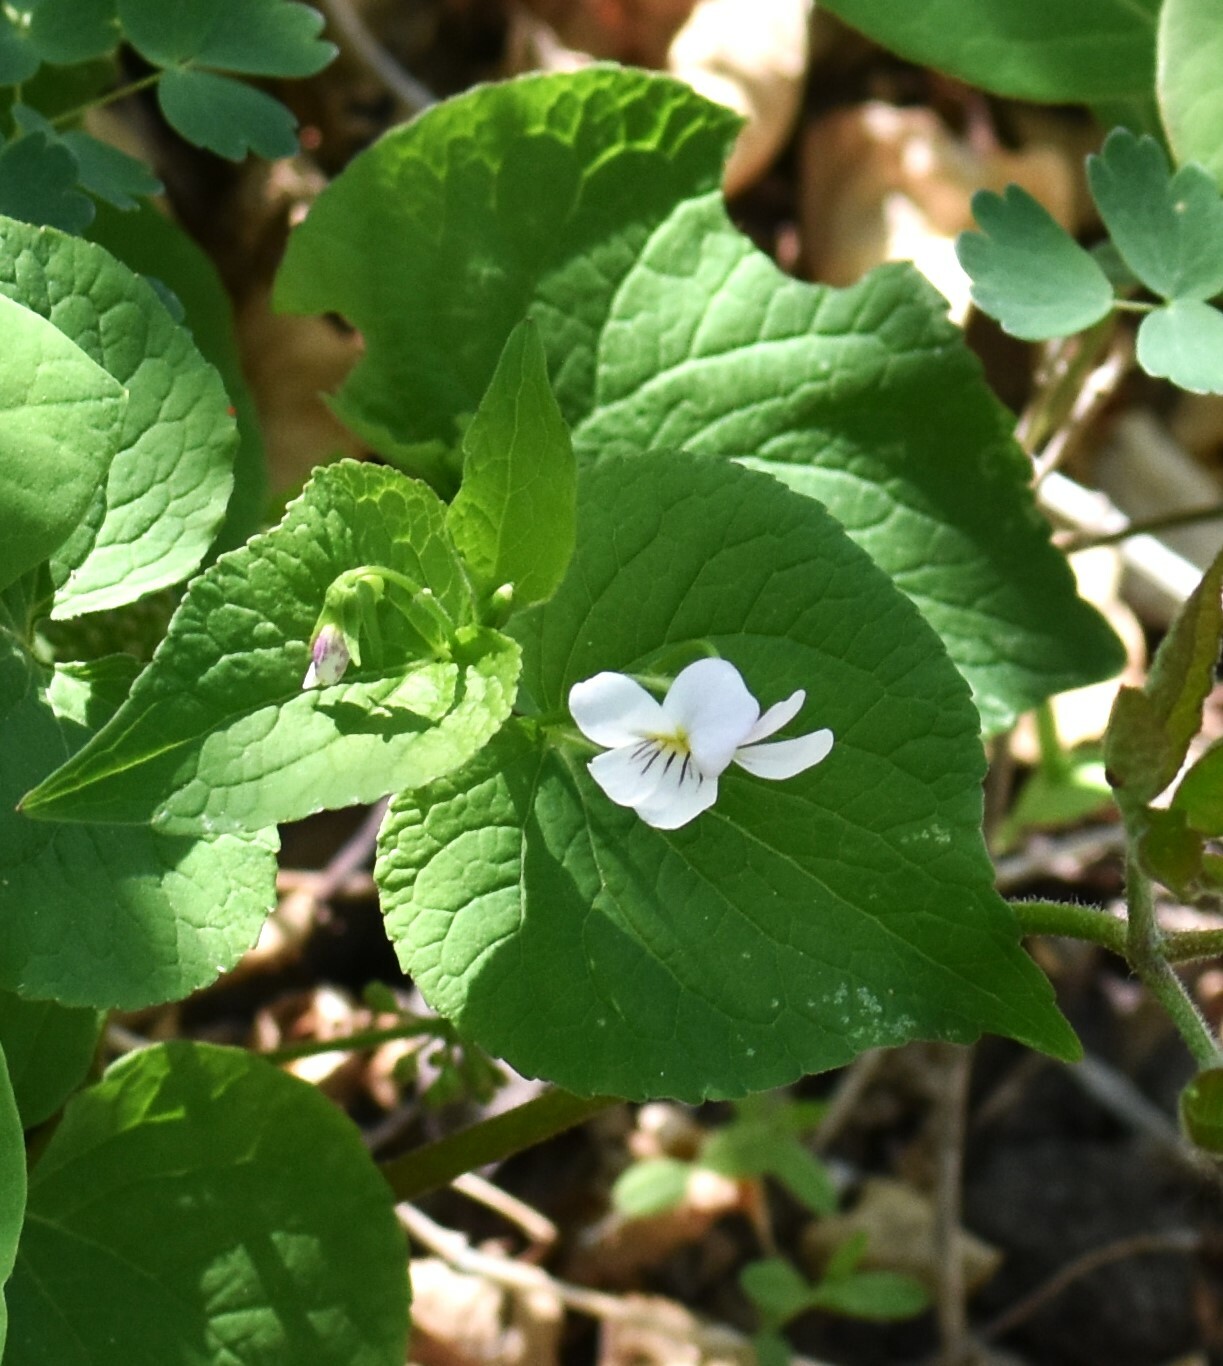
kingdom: Plantae
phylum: Tracheophyta
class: Magnoliopsida
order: Malpighiales
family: Violaceae
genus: Viola
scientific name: Viola canadensis
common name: Canada violet
